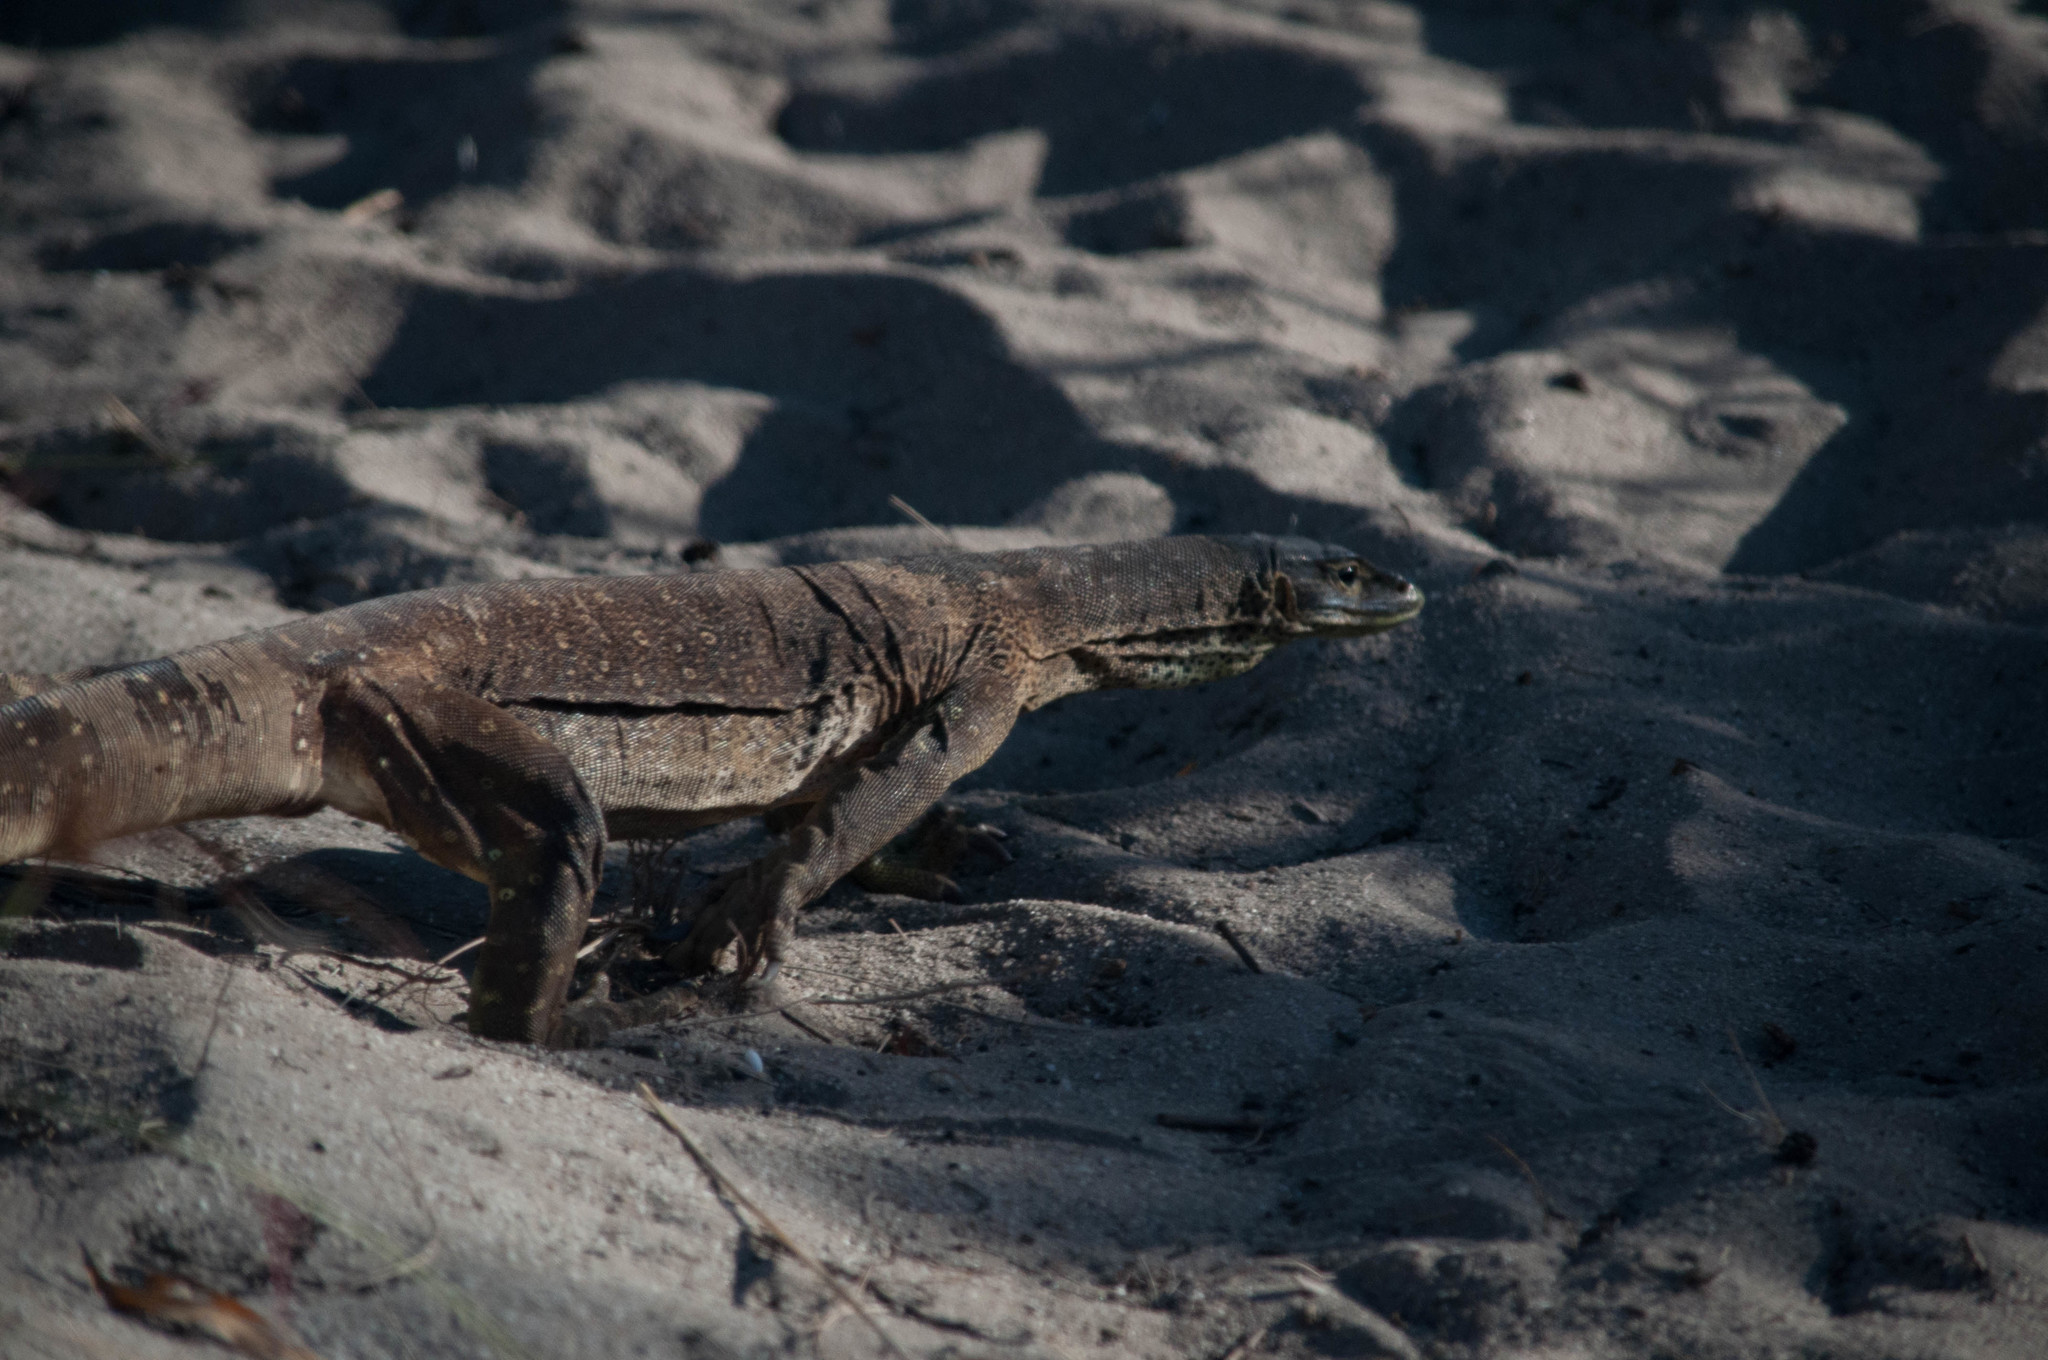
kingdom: Animalia
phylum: Chordata
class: Squamata
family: Varanidae
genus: Varanus
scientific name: Varanus panoptes
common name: Yellow-spotted monitor
